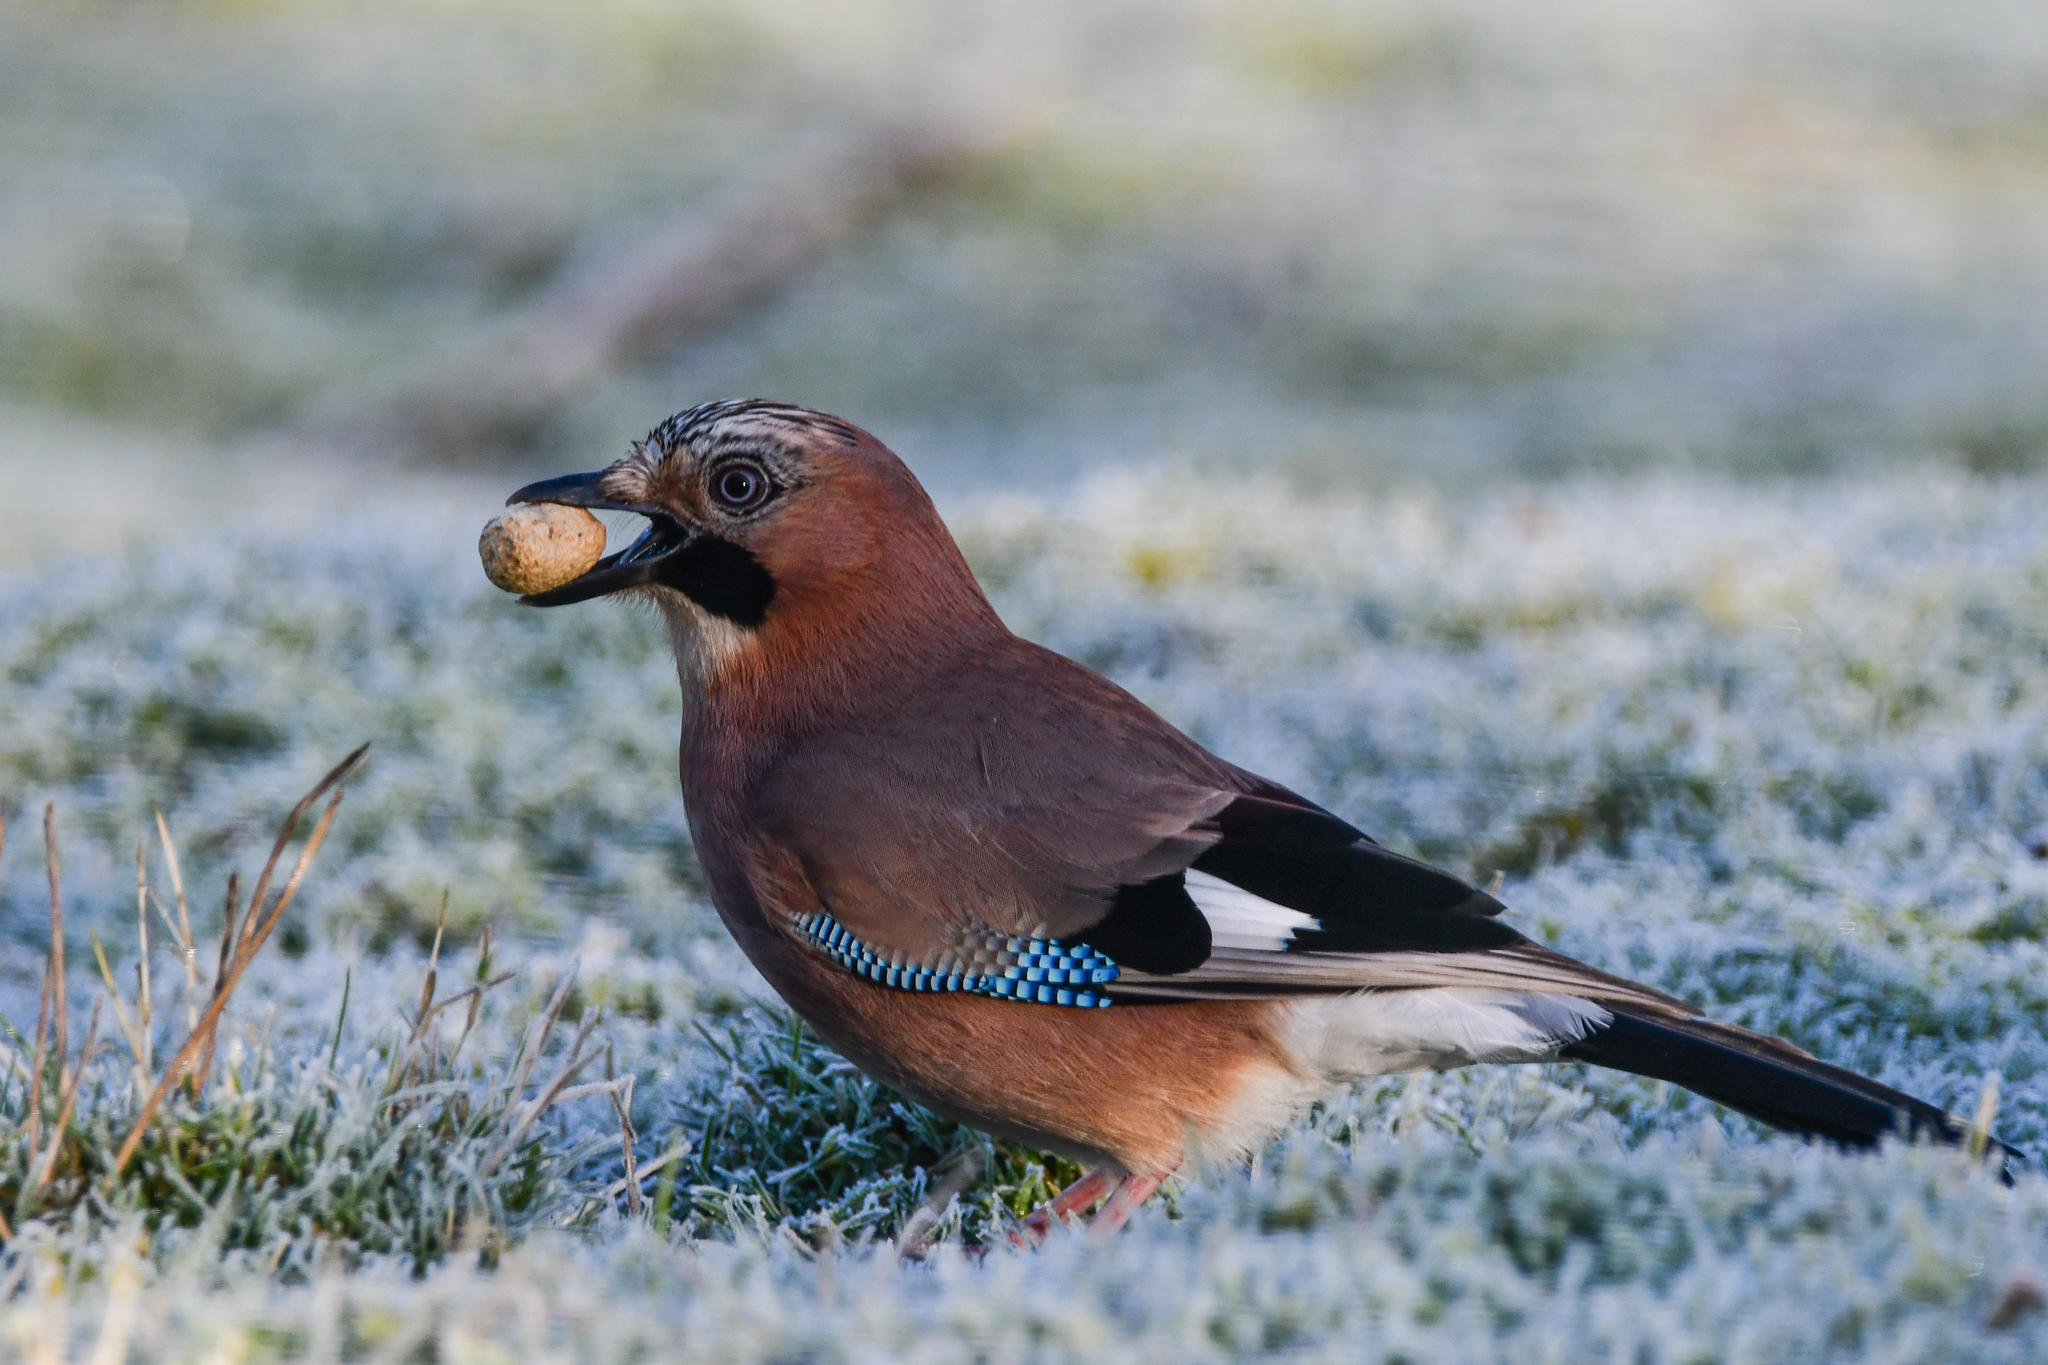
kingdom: Animalia
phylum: Chordata
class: Aves
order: Passeriformes
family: Corvidae
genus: Garrulus
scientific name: Garrulus glandarius
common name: Eurasian jay
